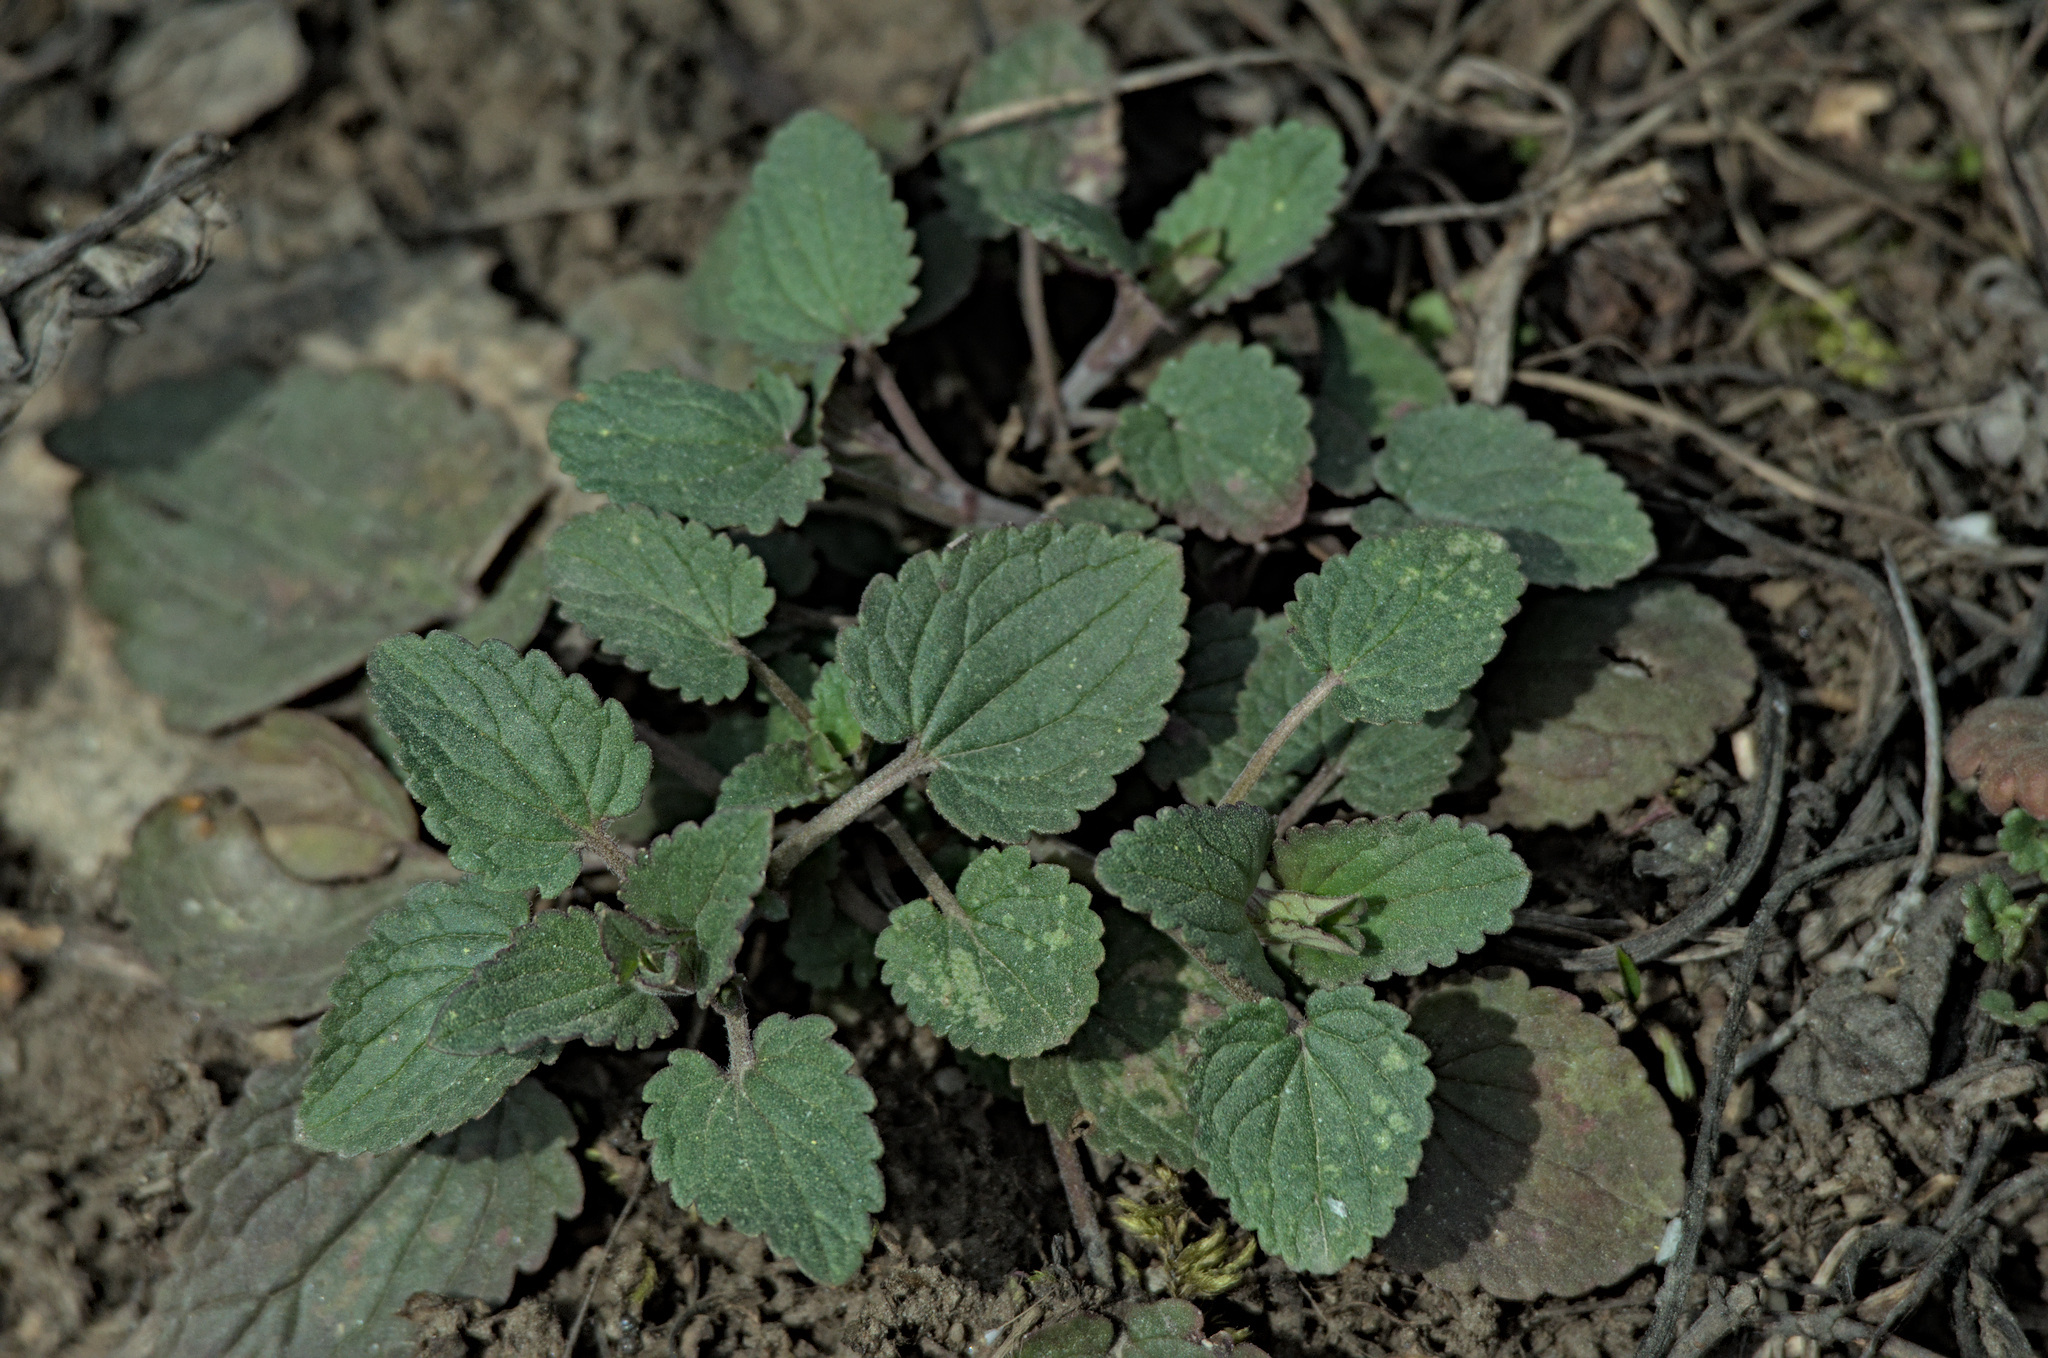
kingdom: Plantae
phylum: Tracheophyta
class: Magnoliopsida
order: Lamiales
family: Lamiaceae
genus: Dracocephalum
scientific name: Dracocephalum nutans
